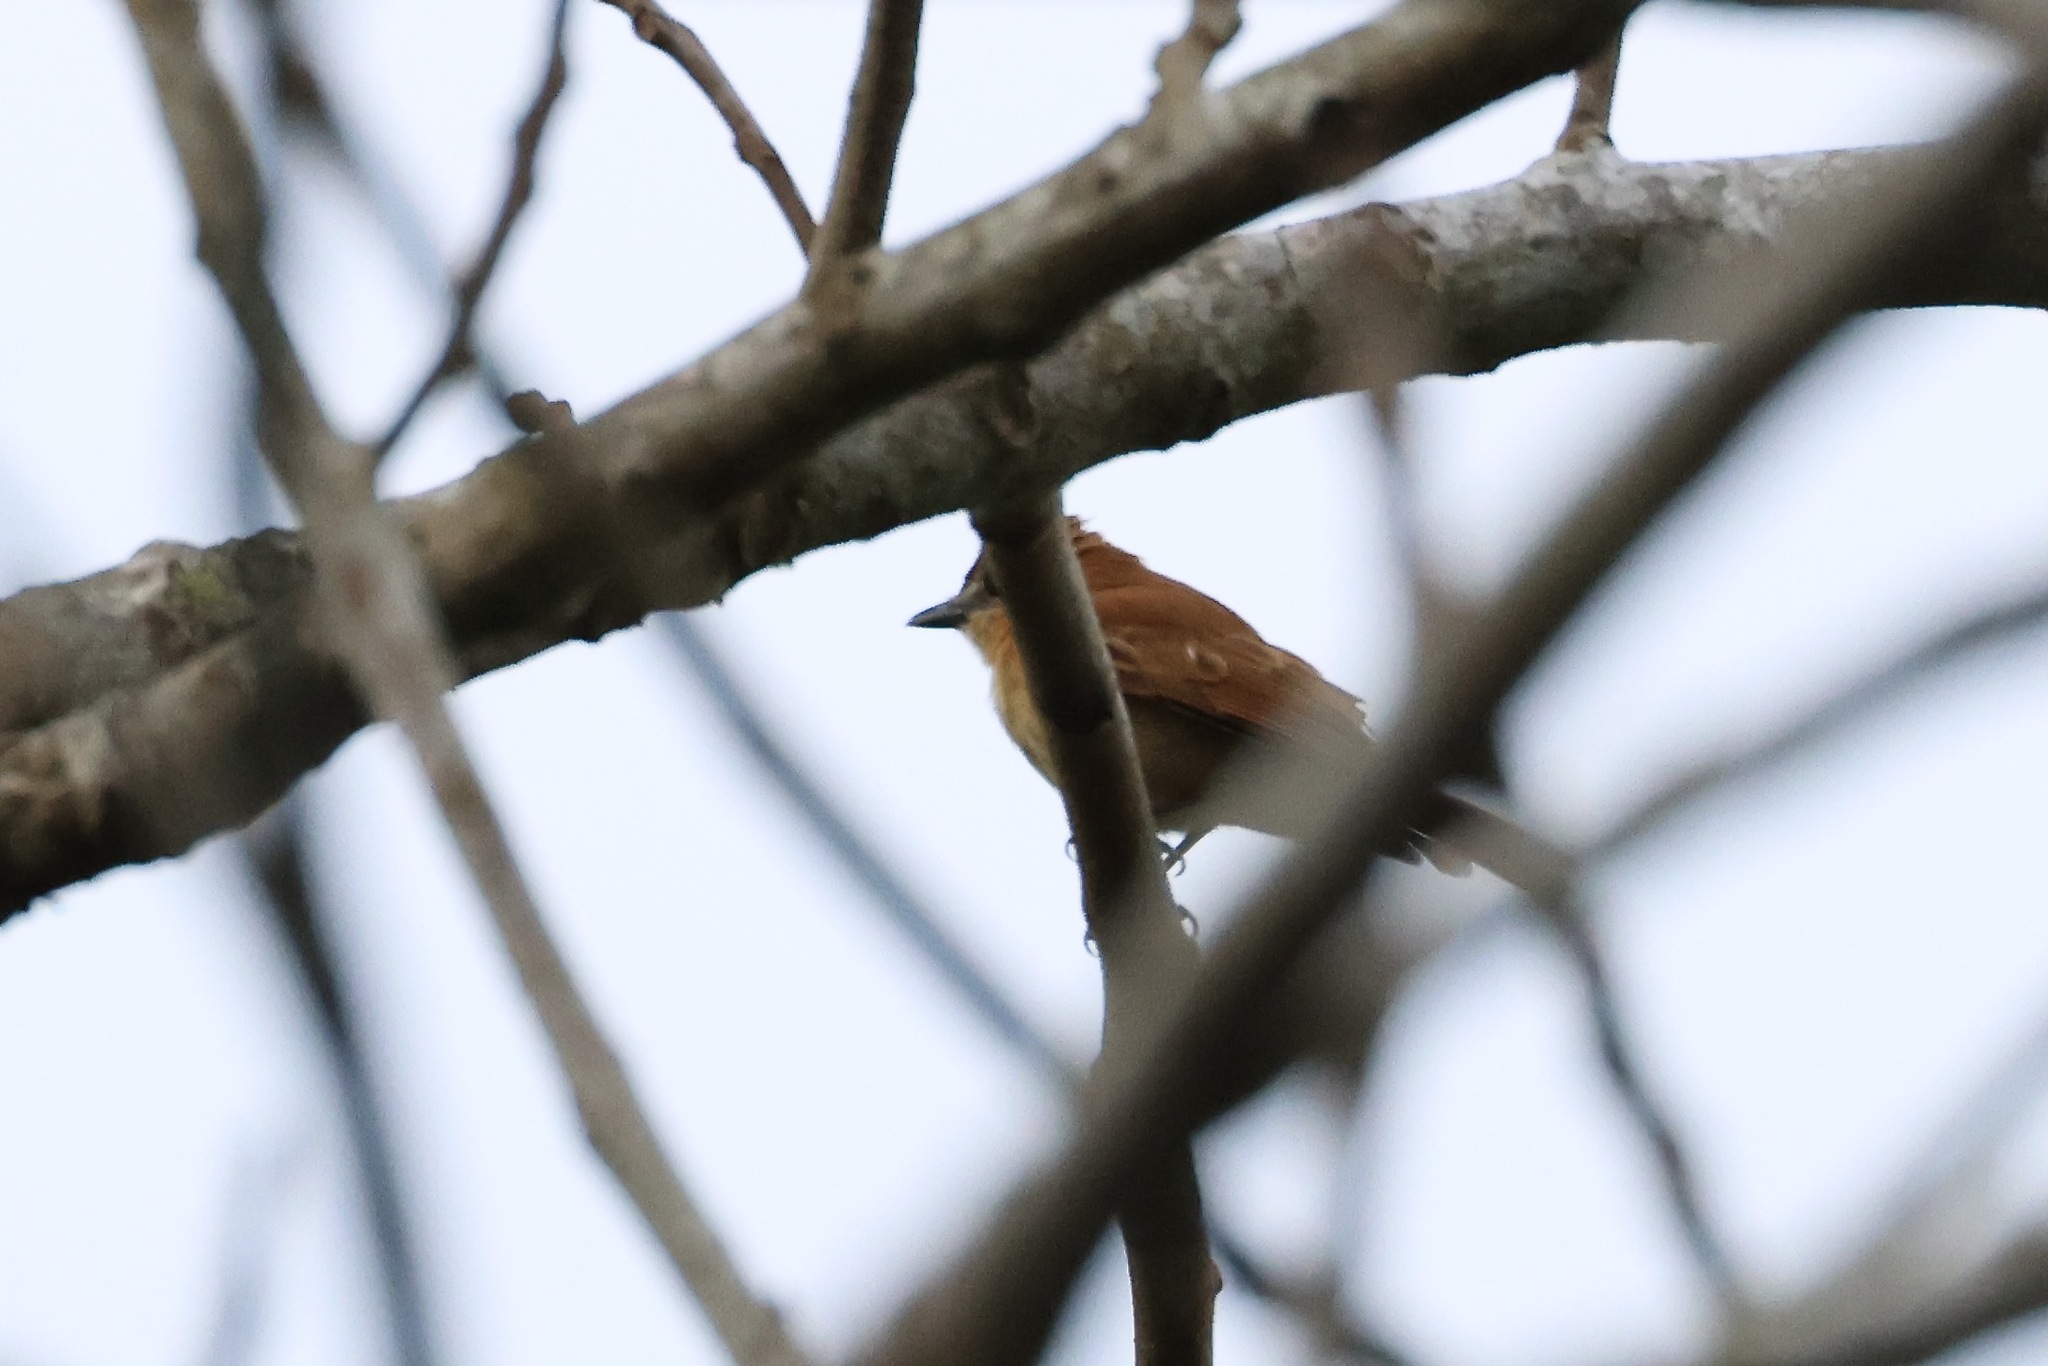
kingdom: Animalia
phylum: Chordata
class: Aves
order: Passeriformes
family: Cotingidae
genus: Pachyramphus
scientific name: Pachyramphus cinnamomeus
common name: Cinnamon becard
